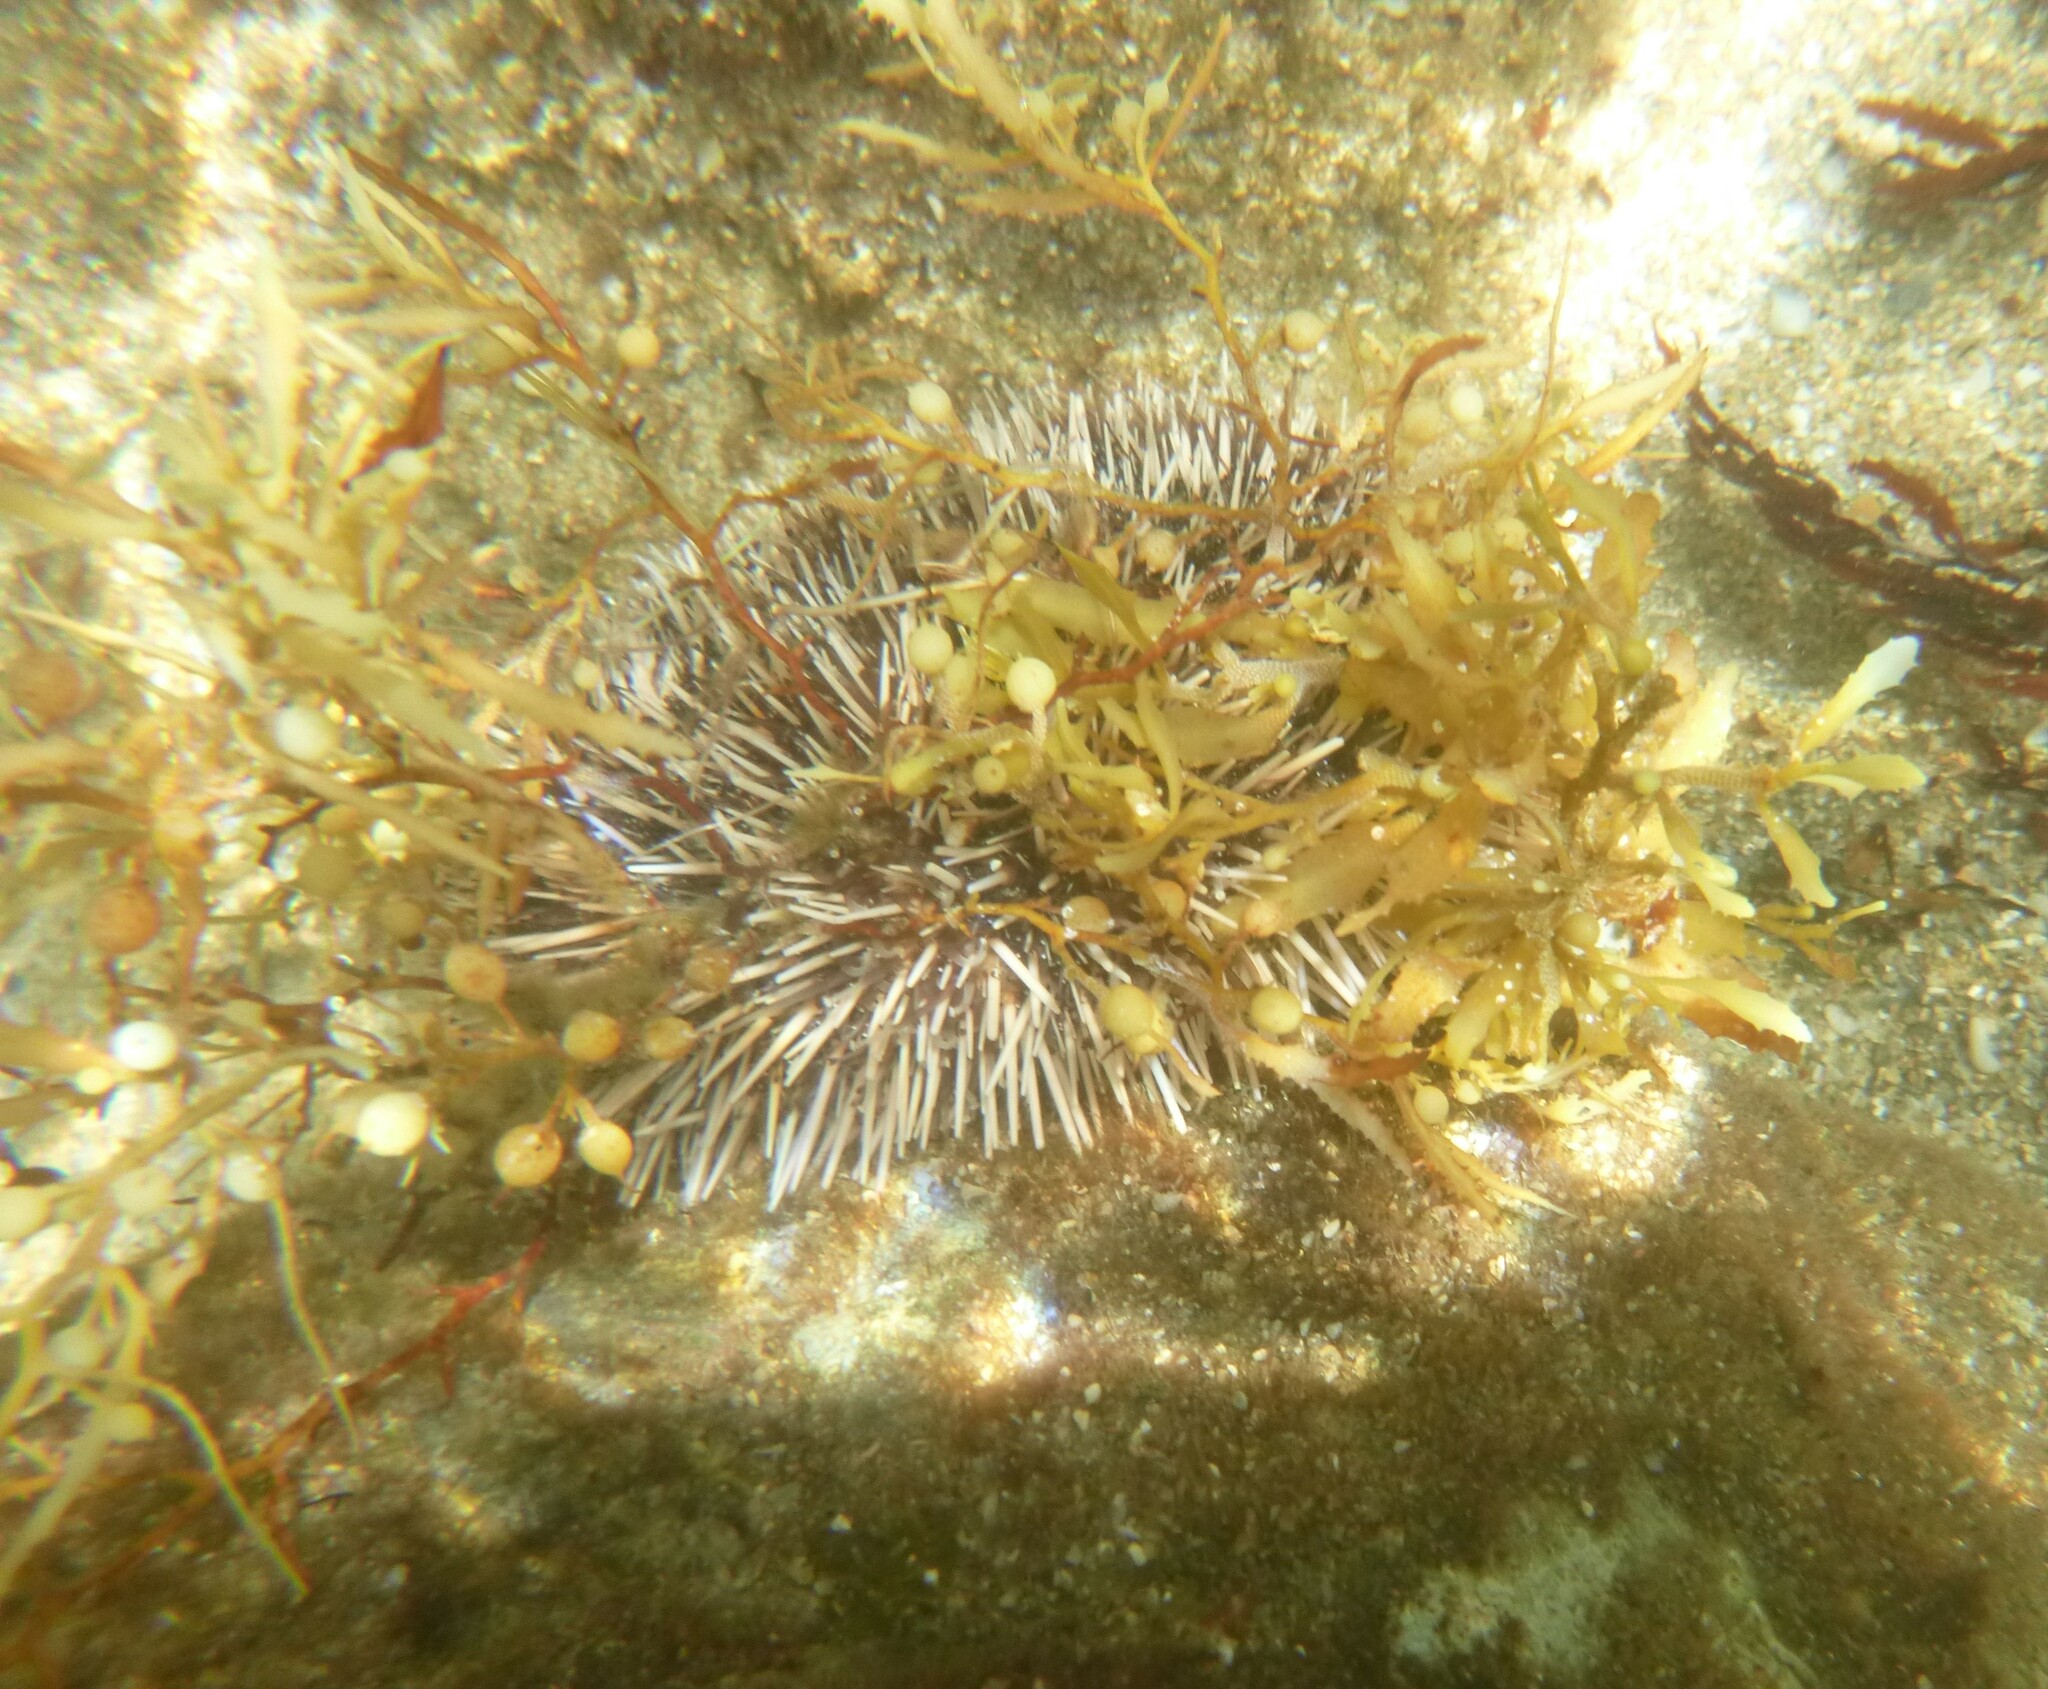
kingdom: Animalia
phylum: Echinodermata
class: Echinoidea
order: Camarodonta
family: Toxopneustidae
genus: Tripneustes
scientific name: Tripneustes ventricosus
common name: West indian sea egg
